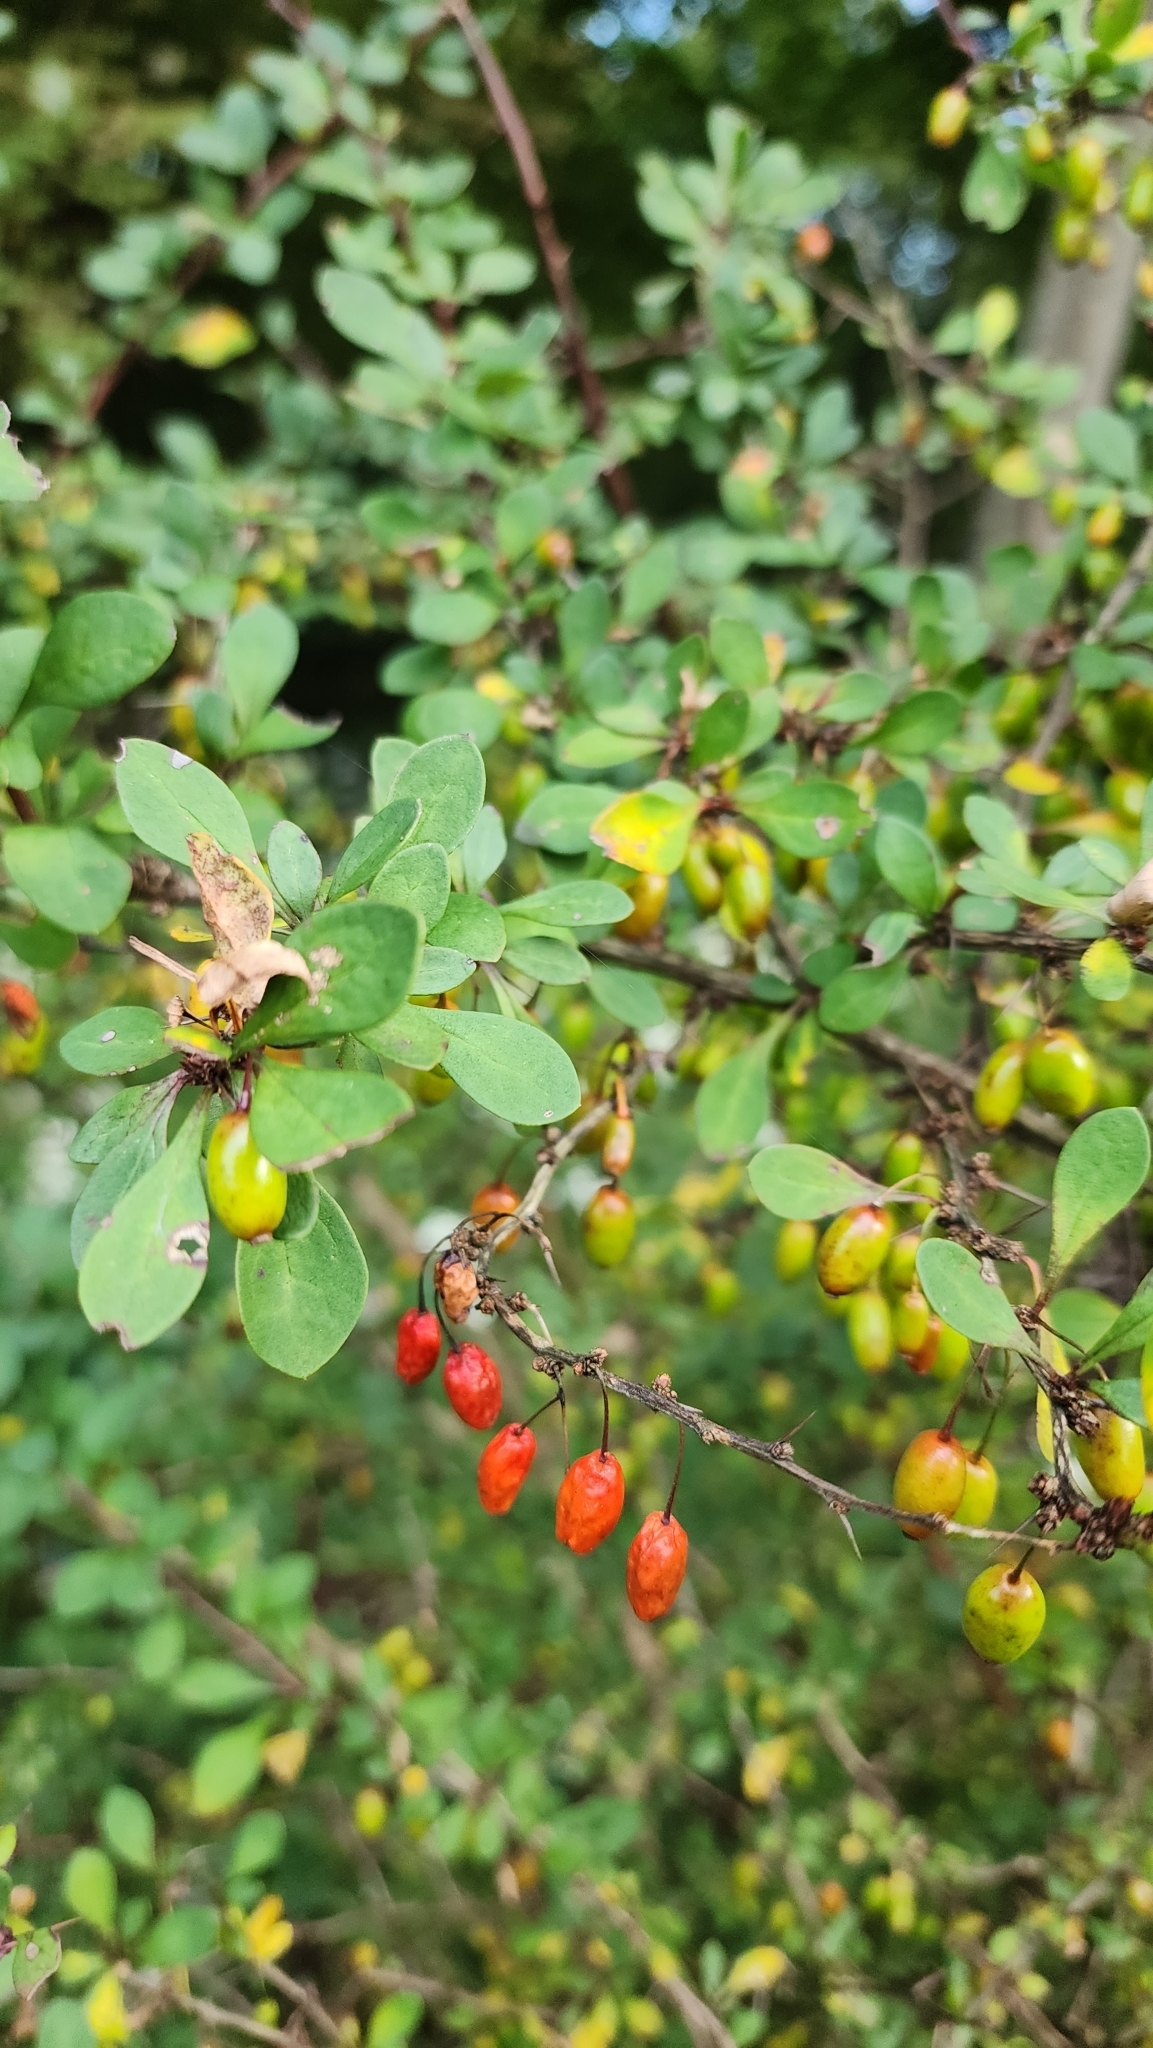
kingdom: Plantae
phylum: Tracheophyta
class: Magnoliopsida
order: Ranunculales
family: Berberidaceae
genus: Berberis
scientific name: Berberis thunbergii
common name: Japanese barberry
